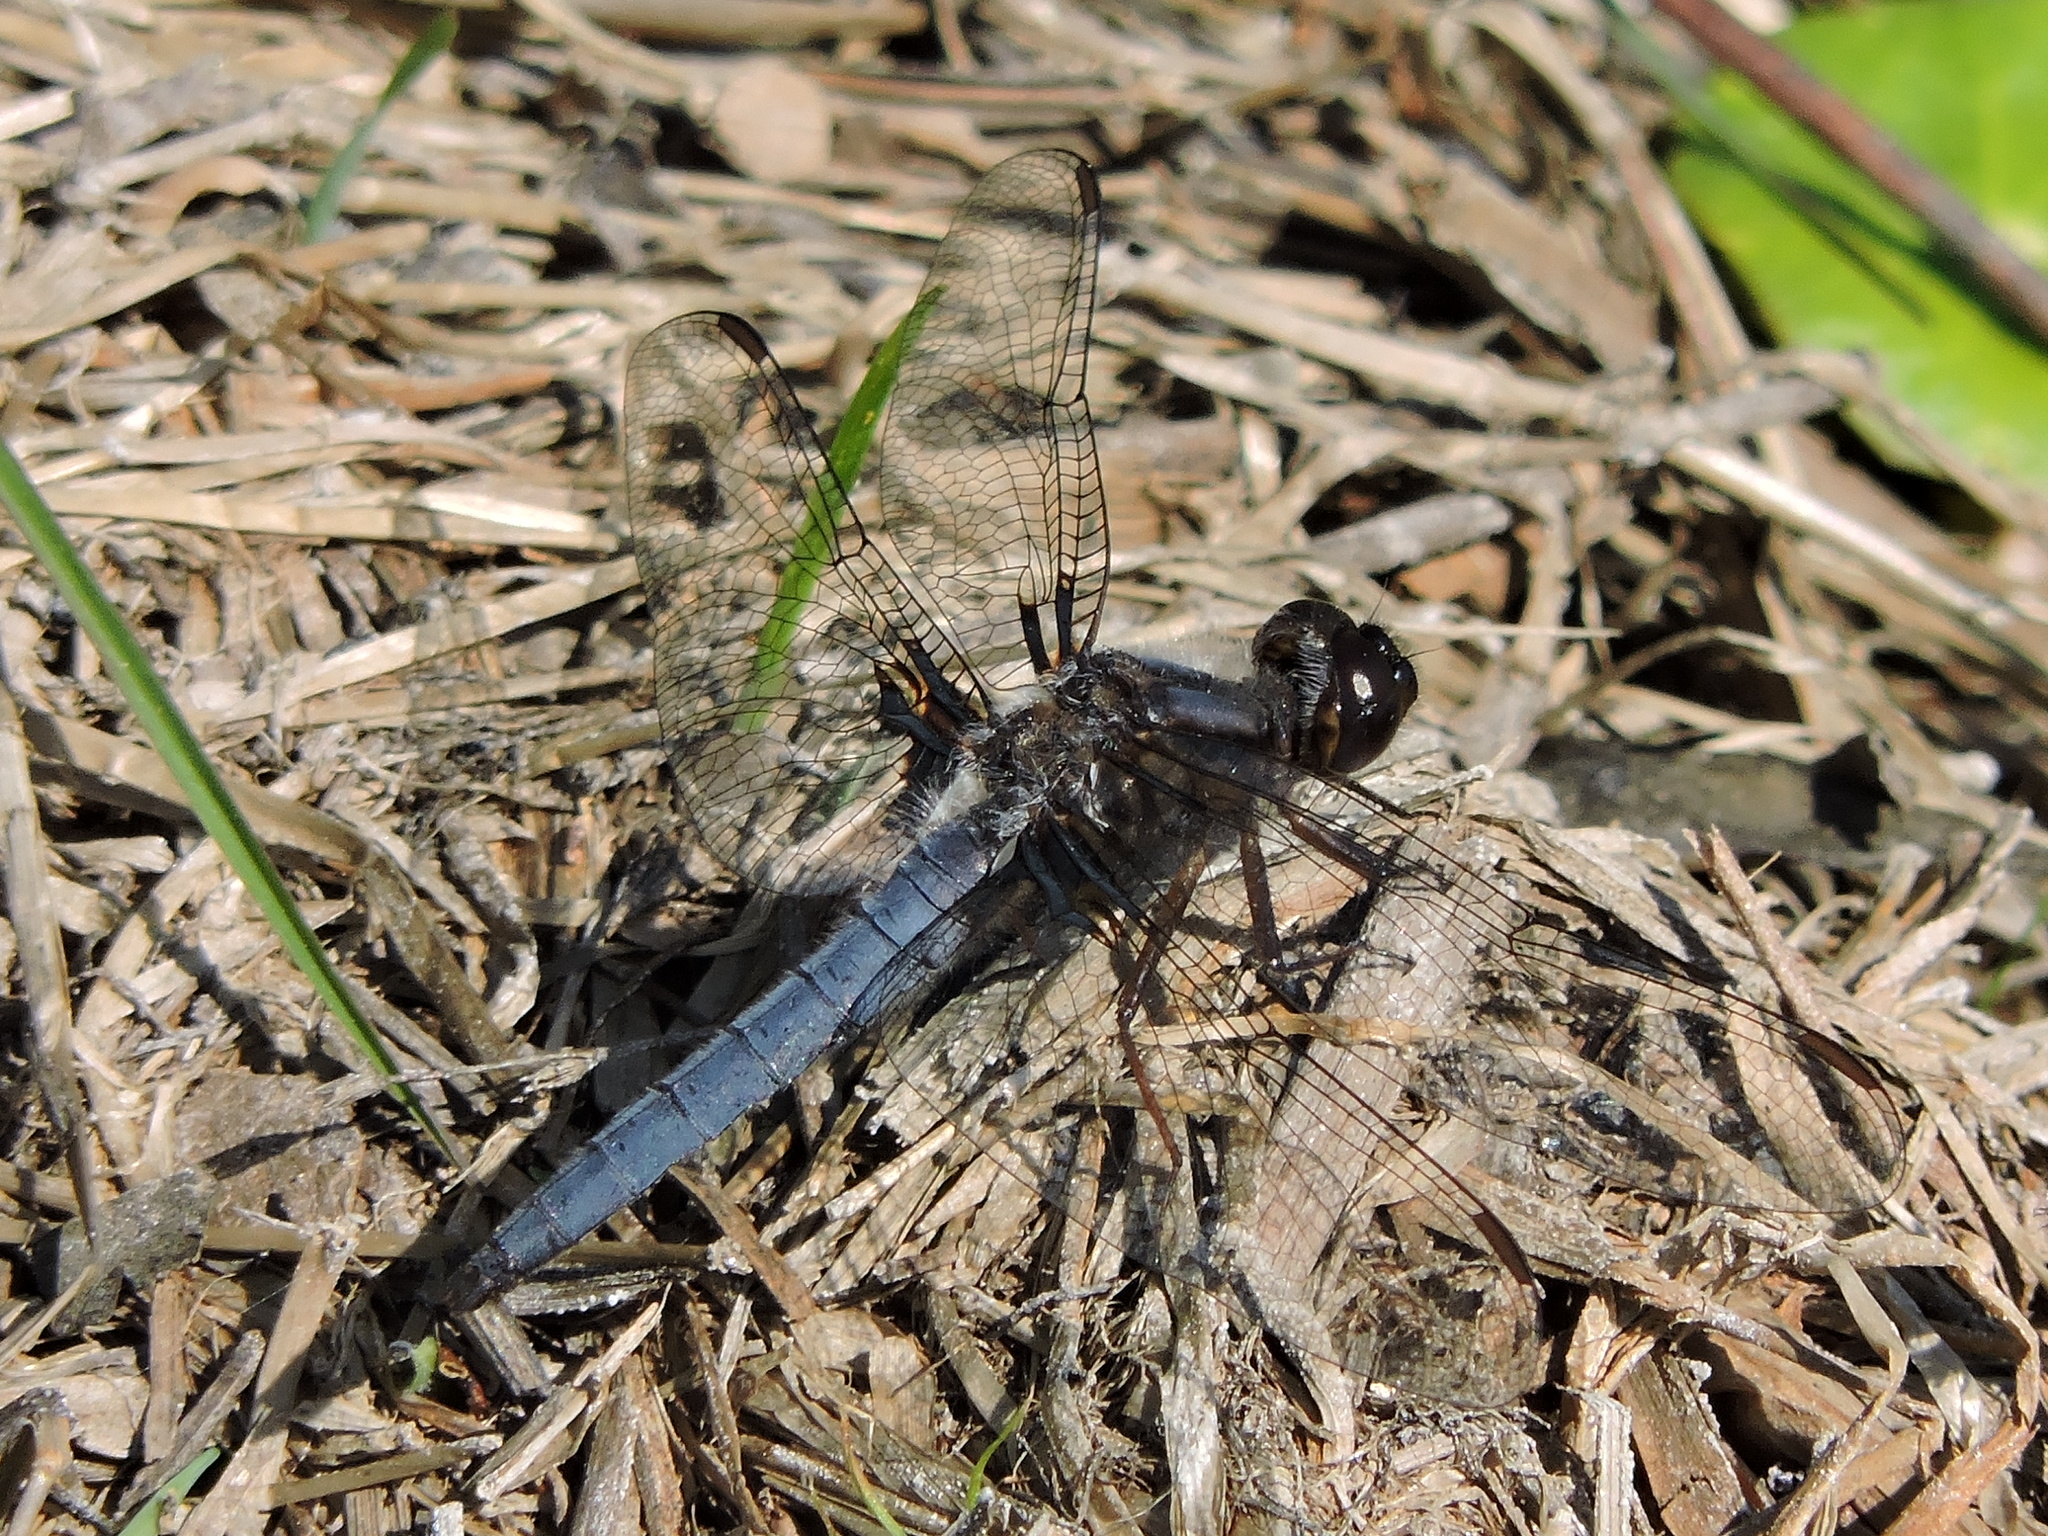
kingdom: Animalia
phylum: Arthropoda
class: Insecta
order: Odonata
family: Libellulidae
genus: Ladona
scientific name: Ladona deplanata
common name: Blue corporal
